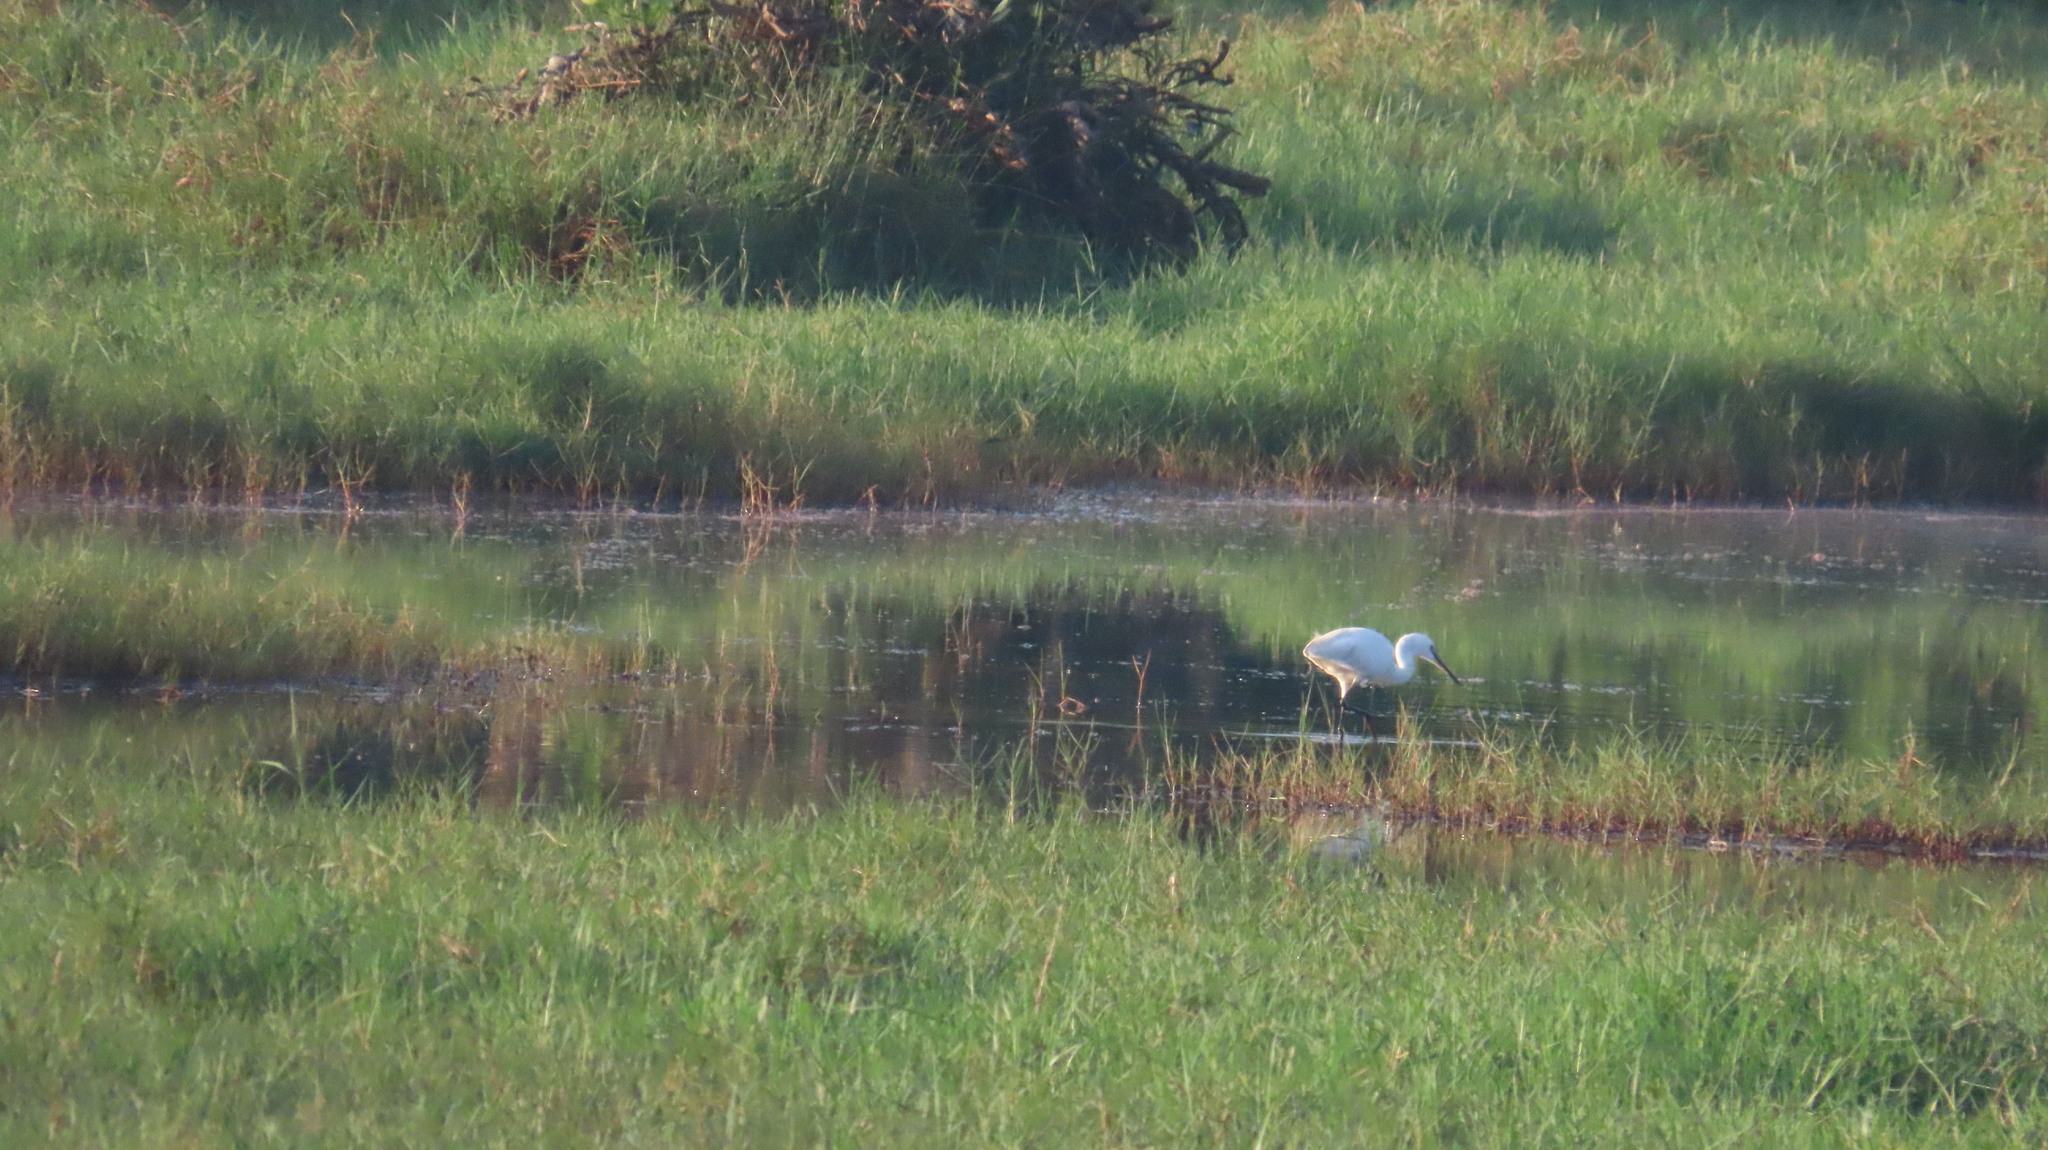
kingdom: Animalia
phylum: Chordata
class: Aves
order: Pelecaniformes
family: Ardeidae
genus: Egretta
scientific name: Egretta garzetta
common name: Little egret
